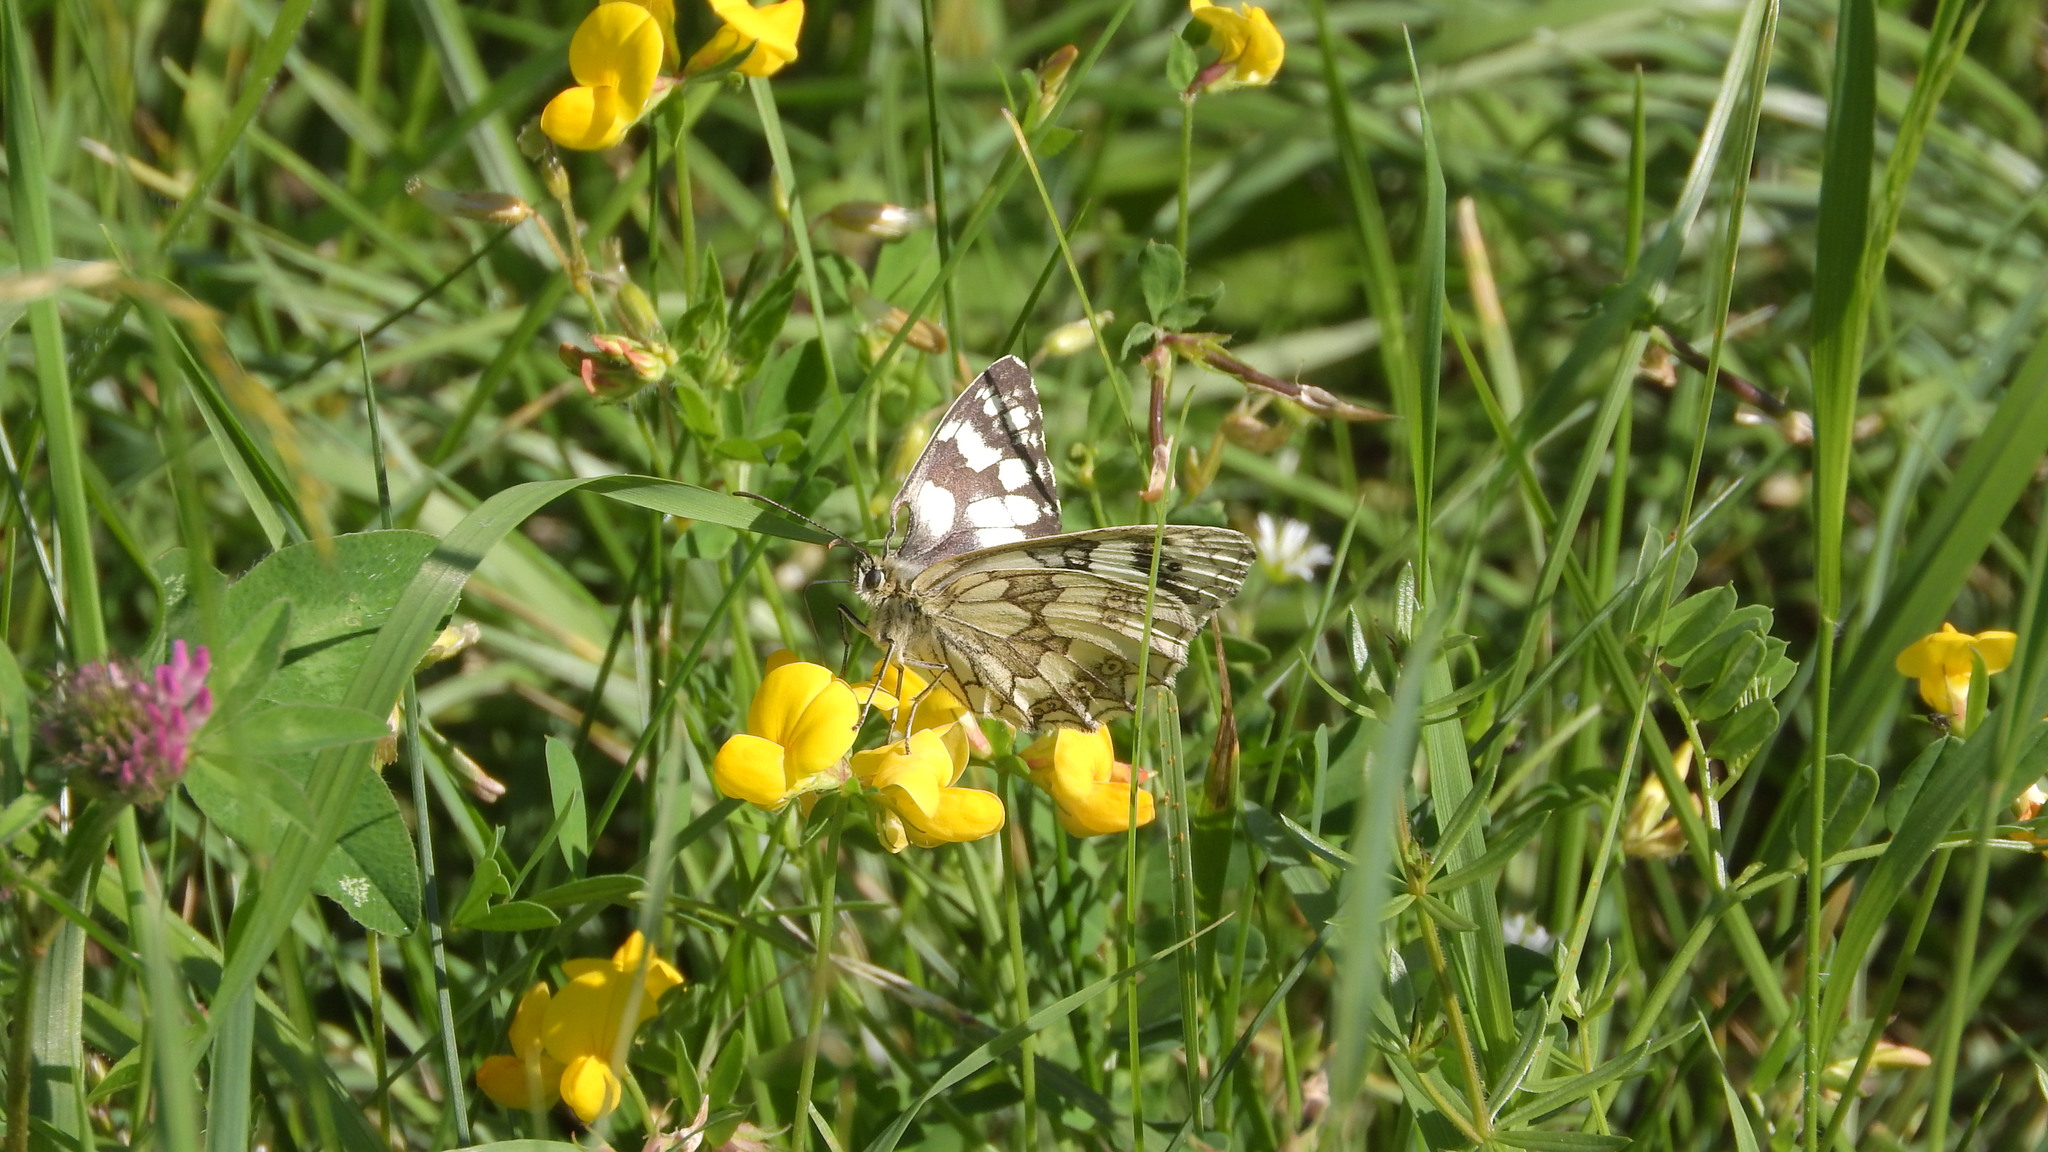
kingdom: Animalia
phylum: Arthropoda
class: Insecta
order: Lepidoptera
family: Nymphalidae
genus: Melanargia
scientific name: Melanargia galathea
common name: Marbled white
